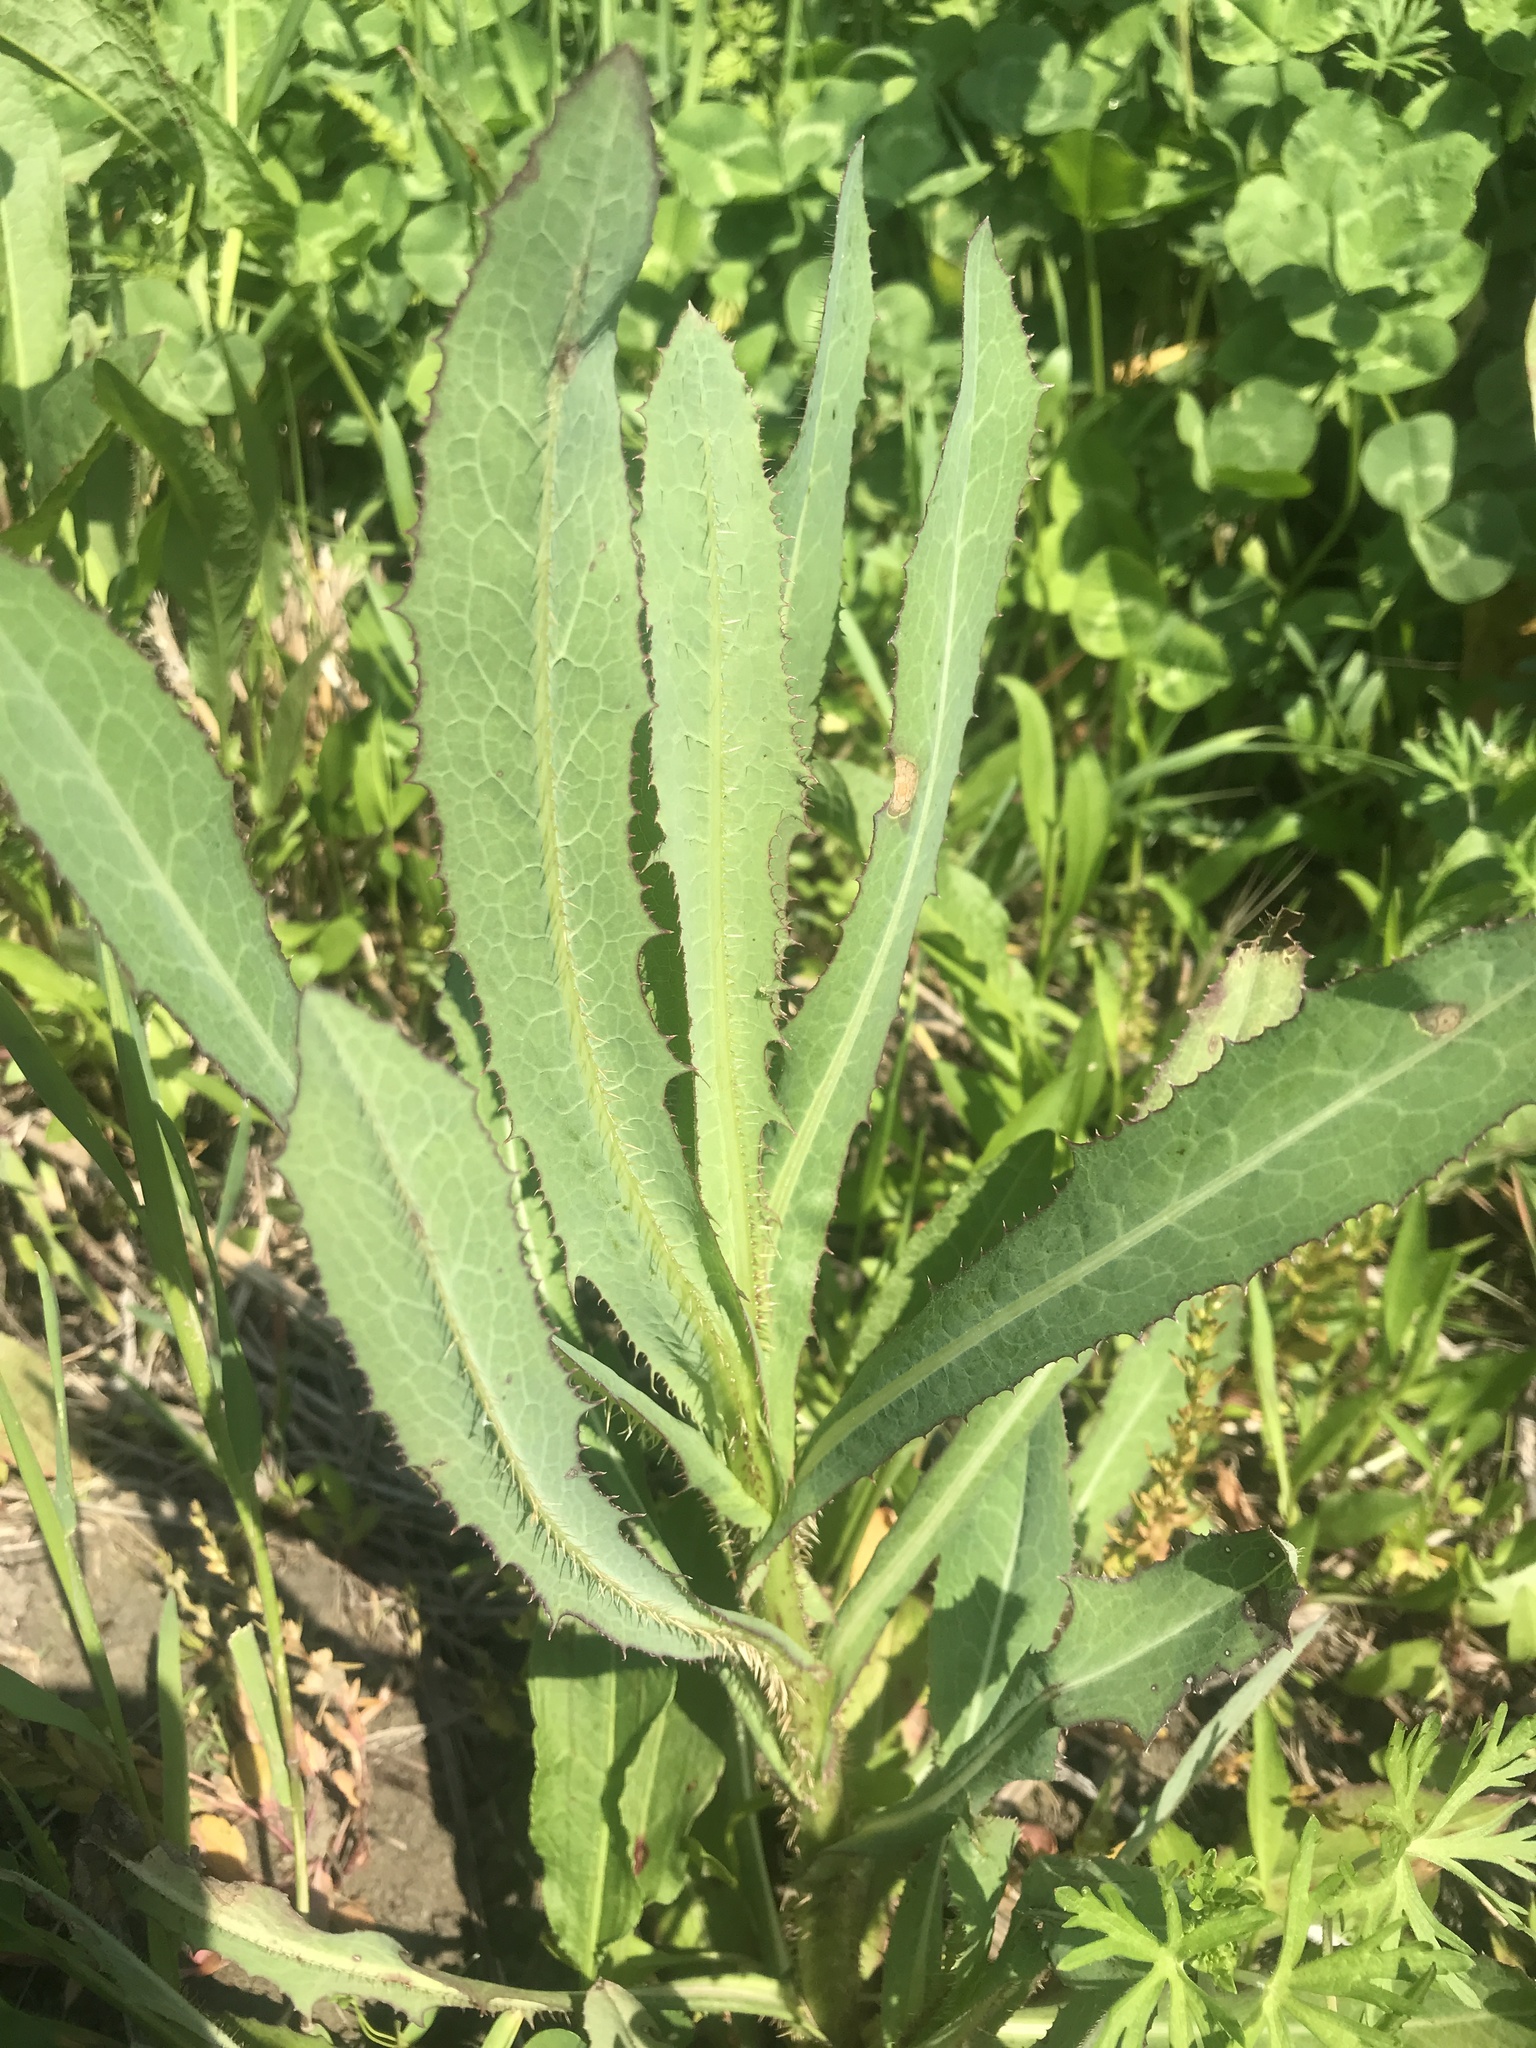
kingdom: Plantae
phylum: Tracheophyta
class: Magnoliopsida
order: Asterales
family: Asteraceae
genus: Lactuca
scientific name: Lactuca serriola
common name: Prickly lettuce
